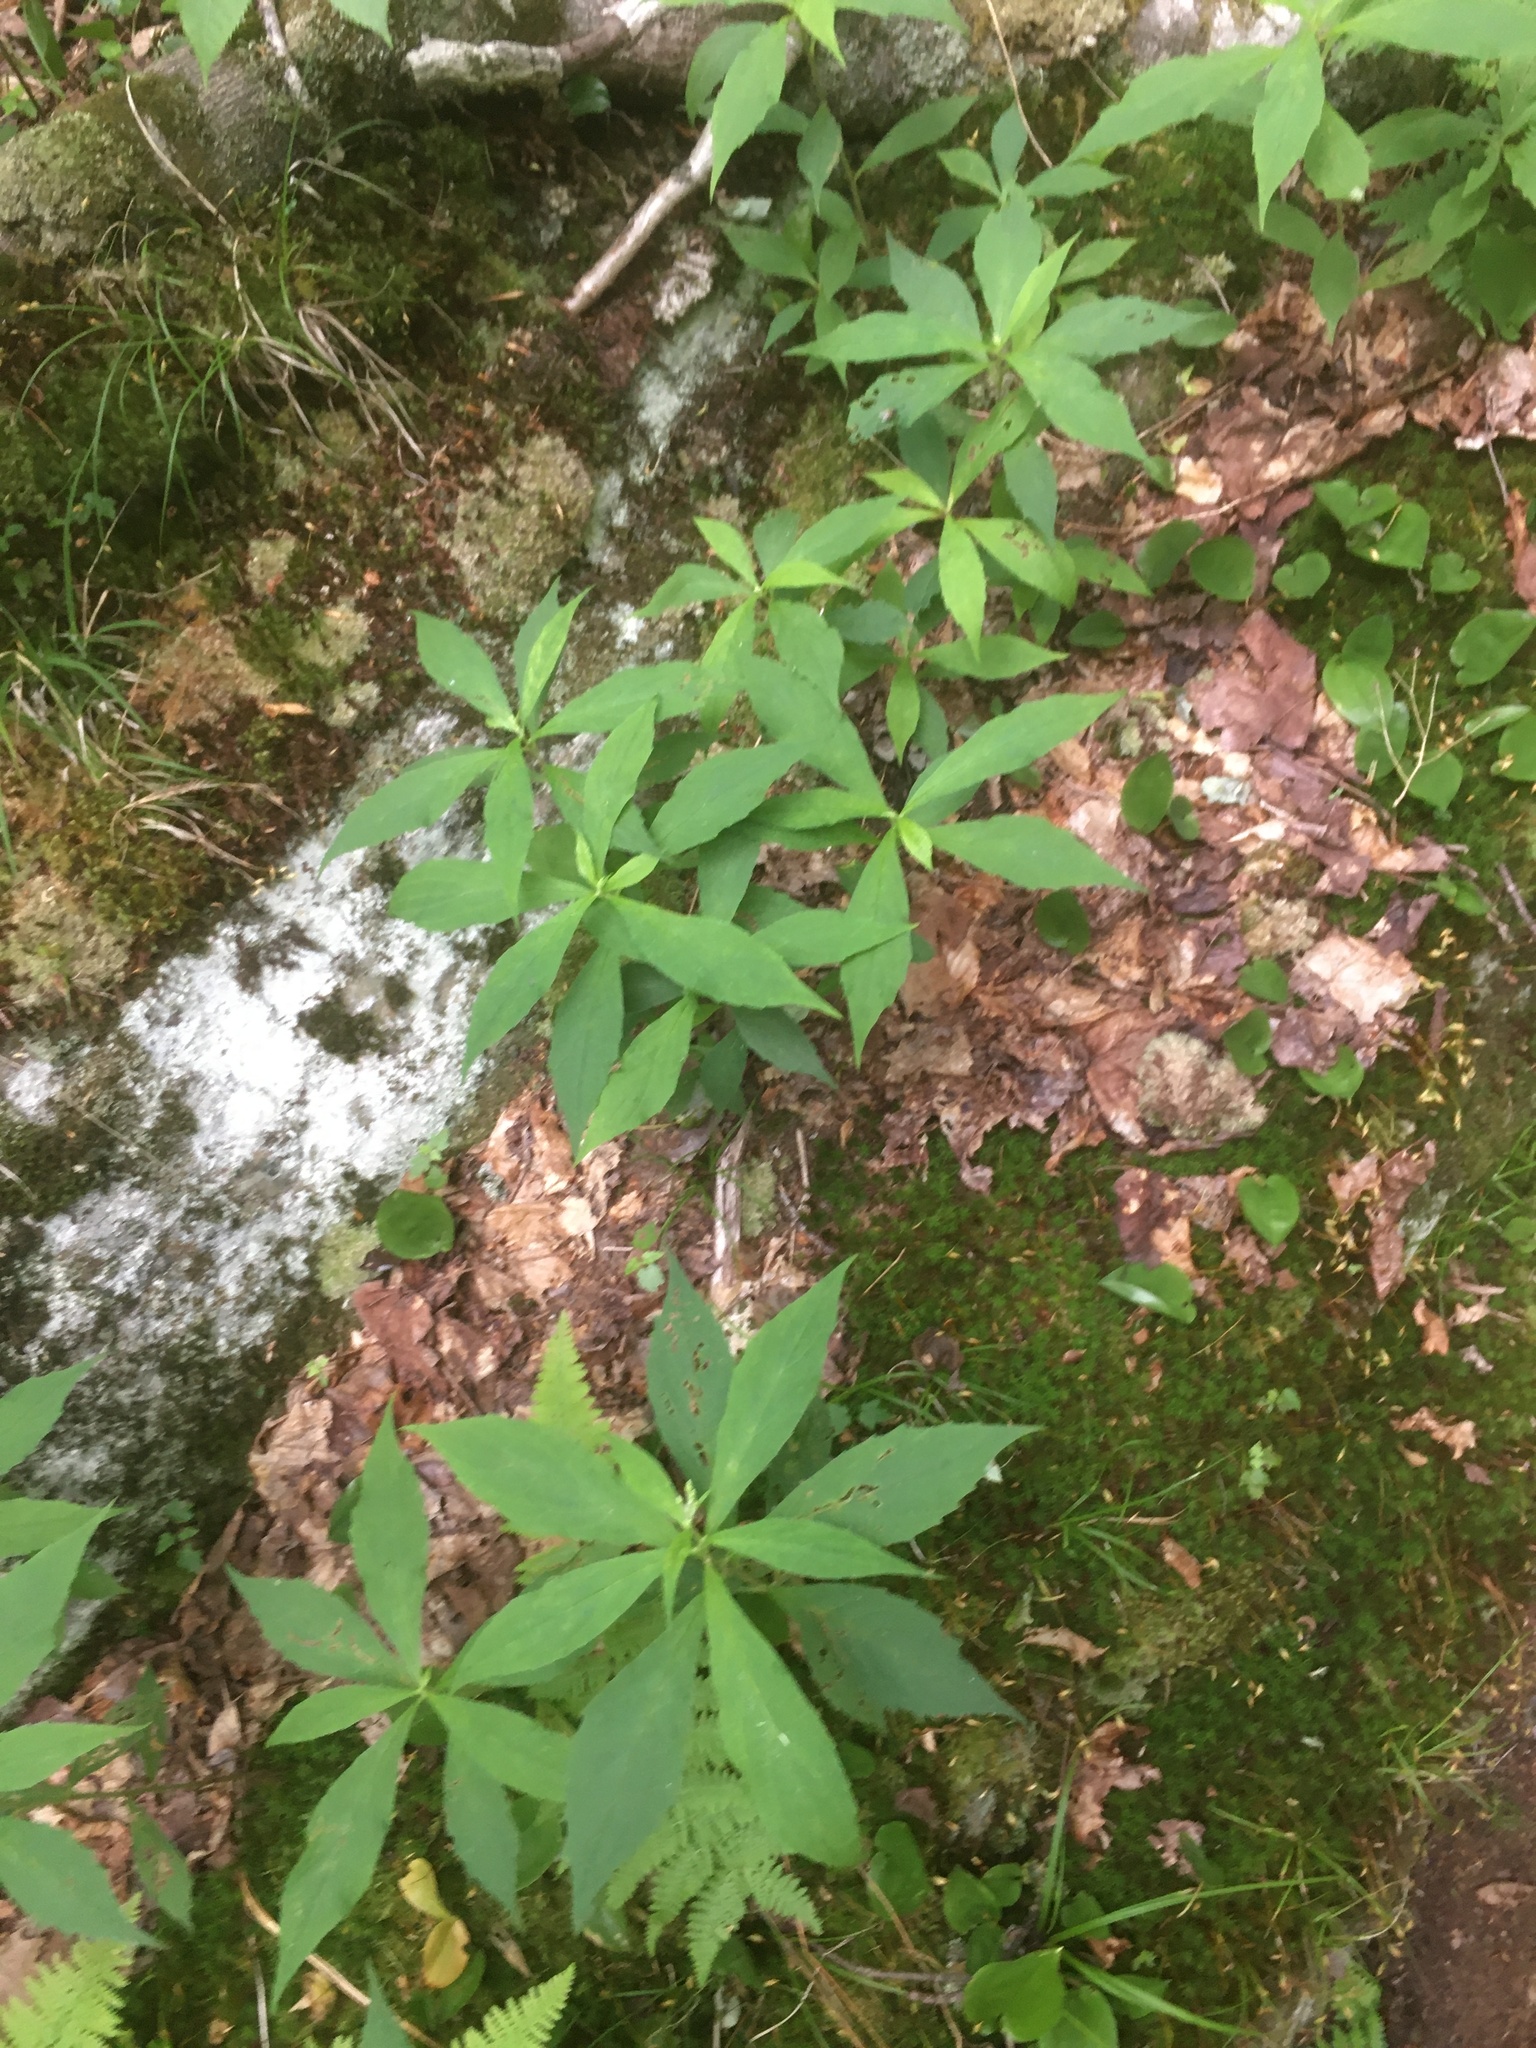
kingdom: Plantae
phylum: Tracheophyta
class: Magnoliopsida
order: Asterales
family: Asteraceae
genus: Oclemena
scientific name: Oclemena acuminata
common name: Mountain aster
